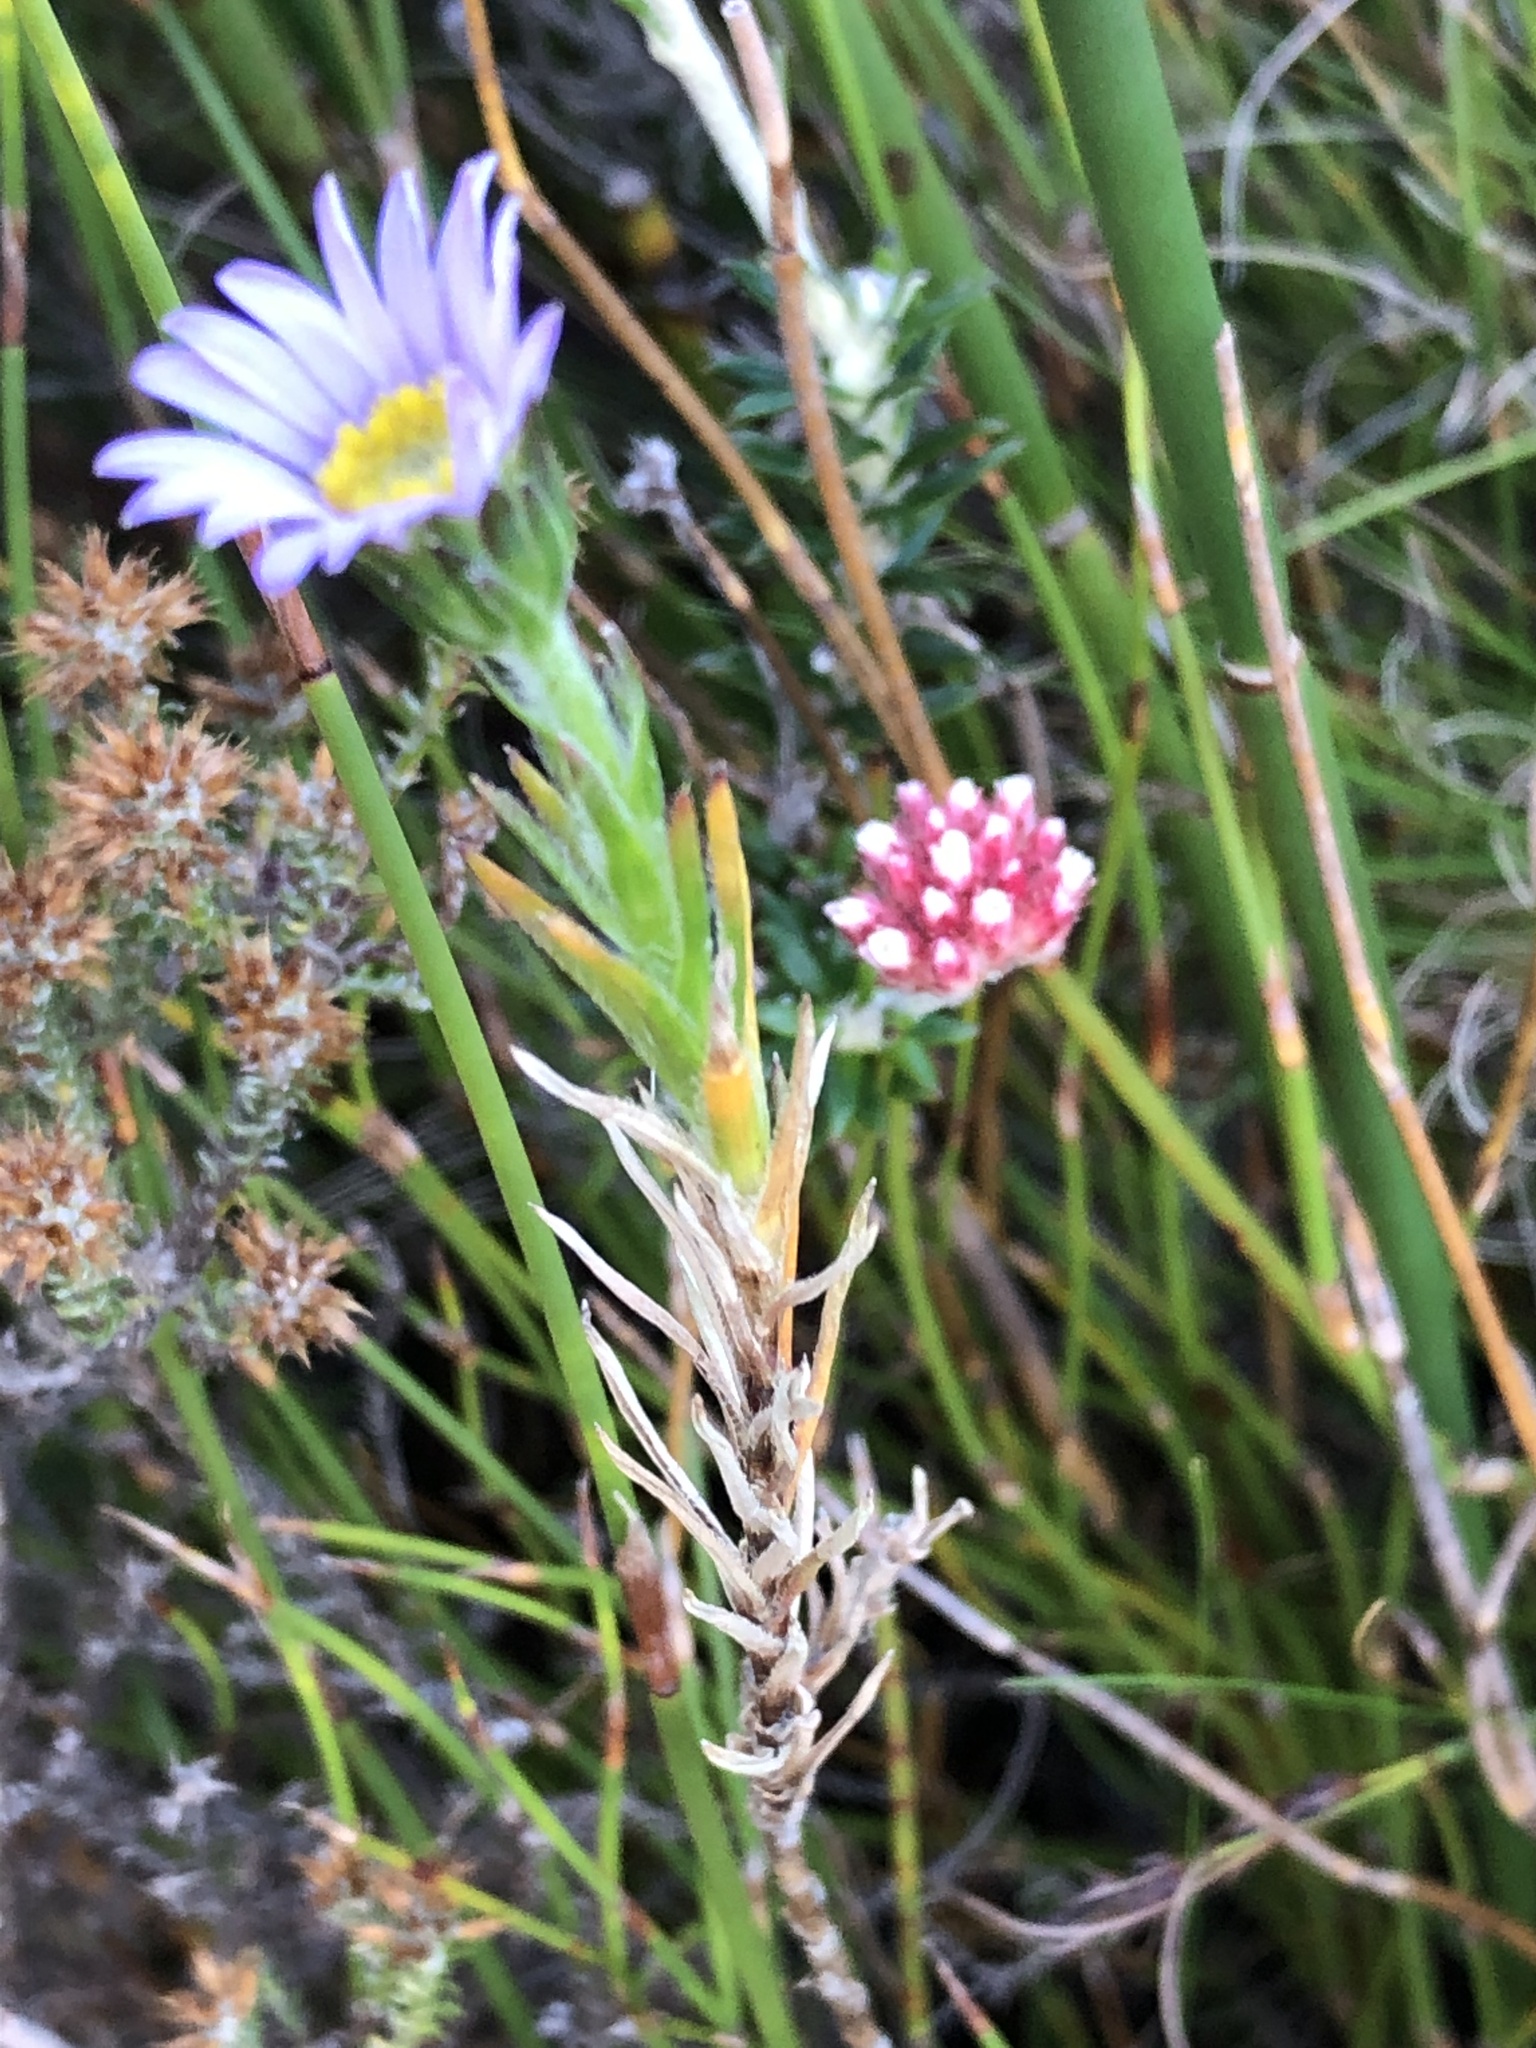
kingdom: Plantae
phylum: Tracheophyta
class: Magnoliopsida
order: Asterales
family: Asteraceae
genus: Zyrphelis
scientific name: Zyrphelis taxifolia
